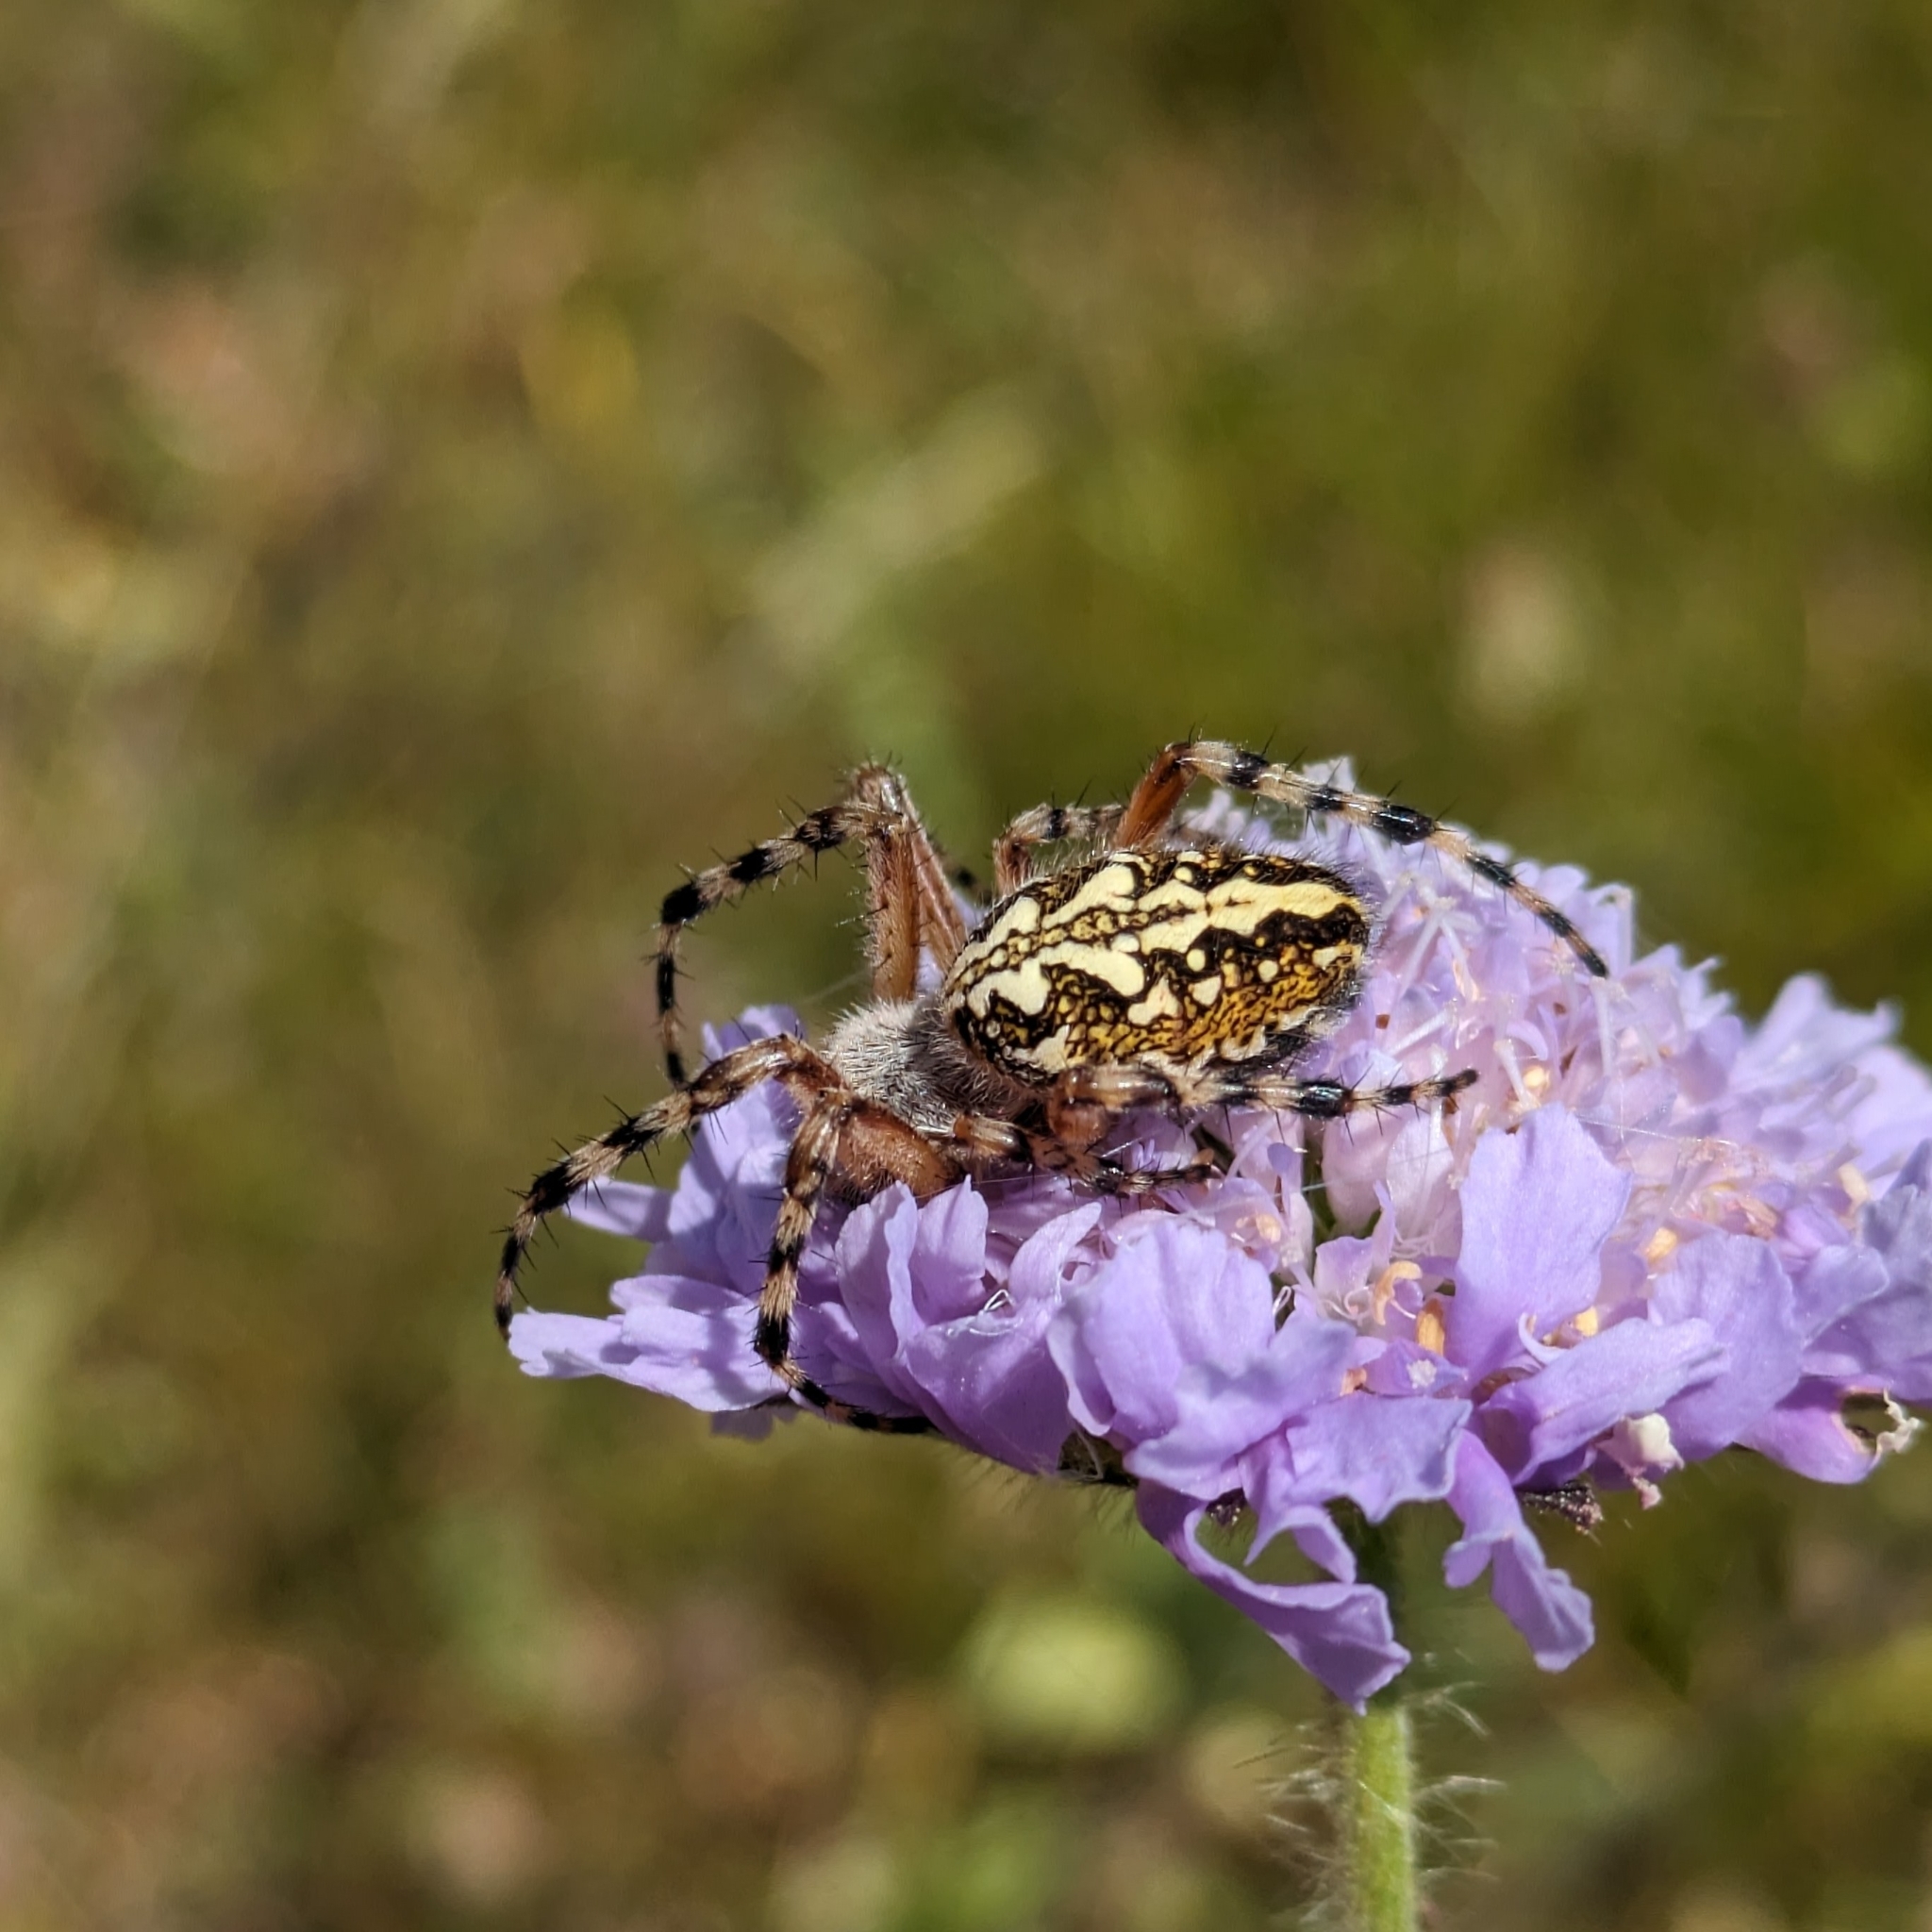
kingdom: Animalia
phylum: Arthropoda
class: Arachnida
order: Araneae
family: Araneidae
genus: Aculepeira
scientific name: Aculepeira ceropegia
